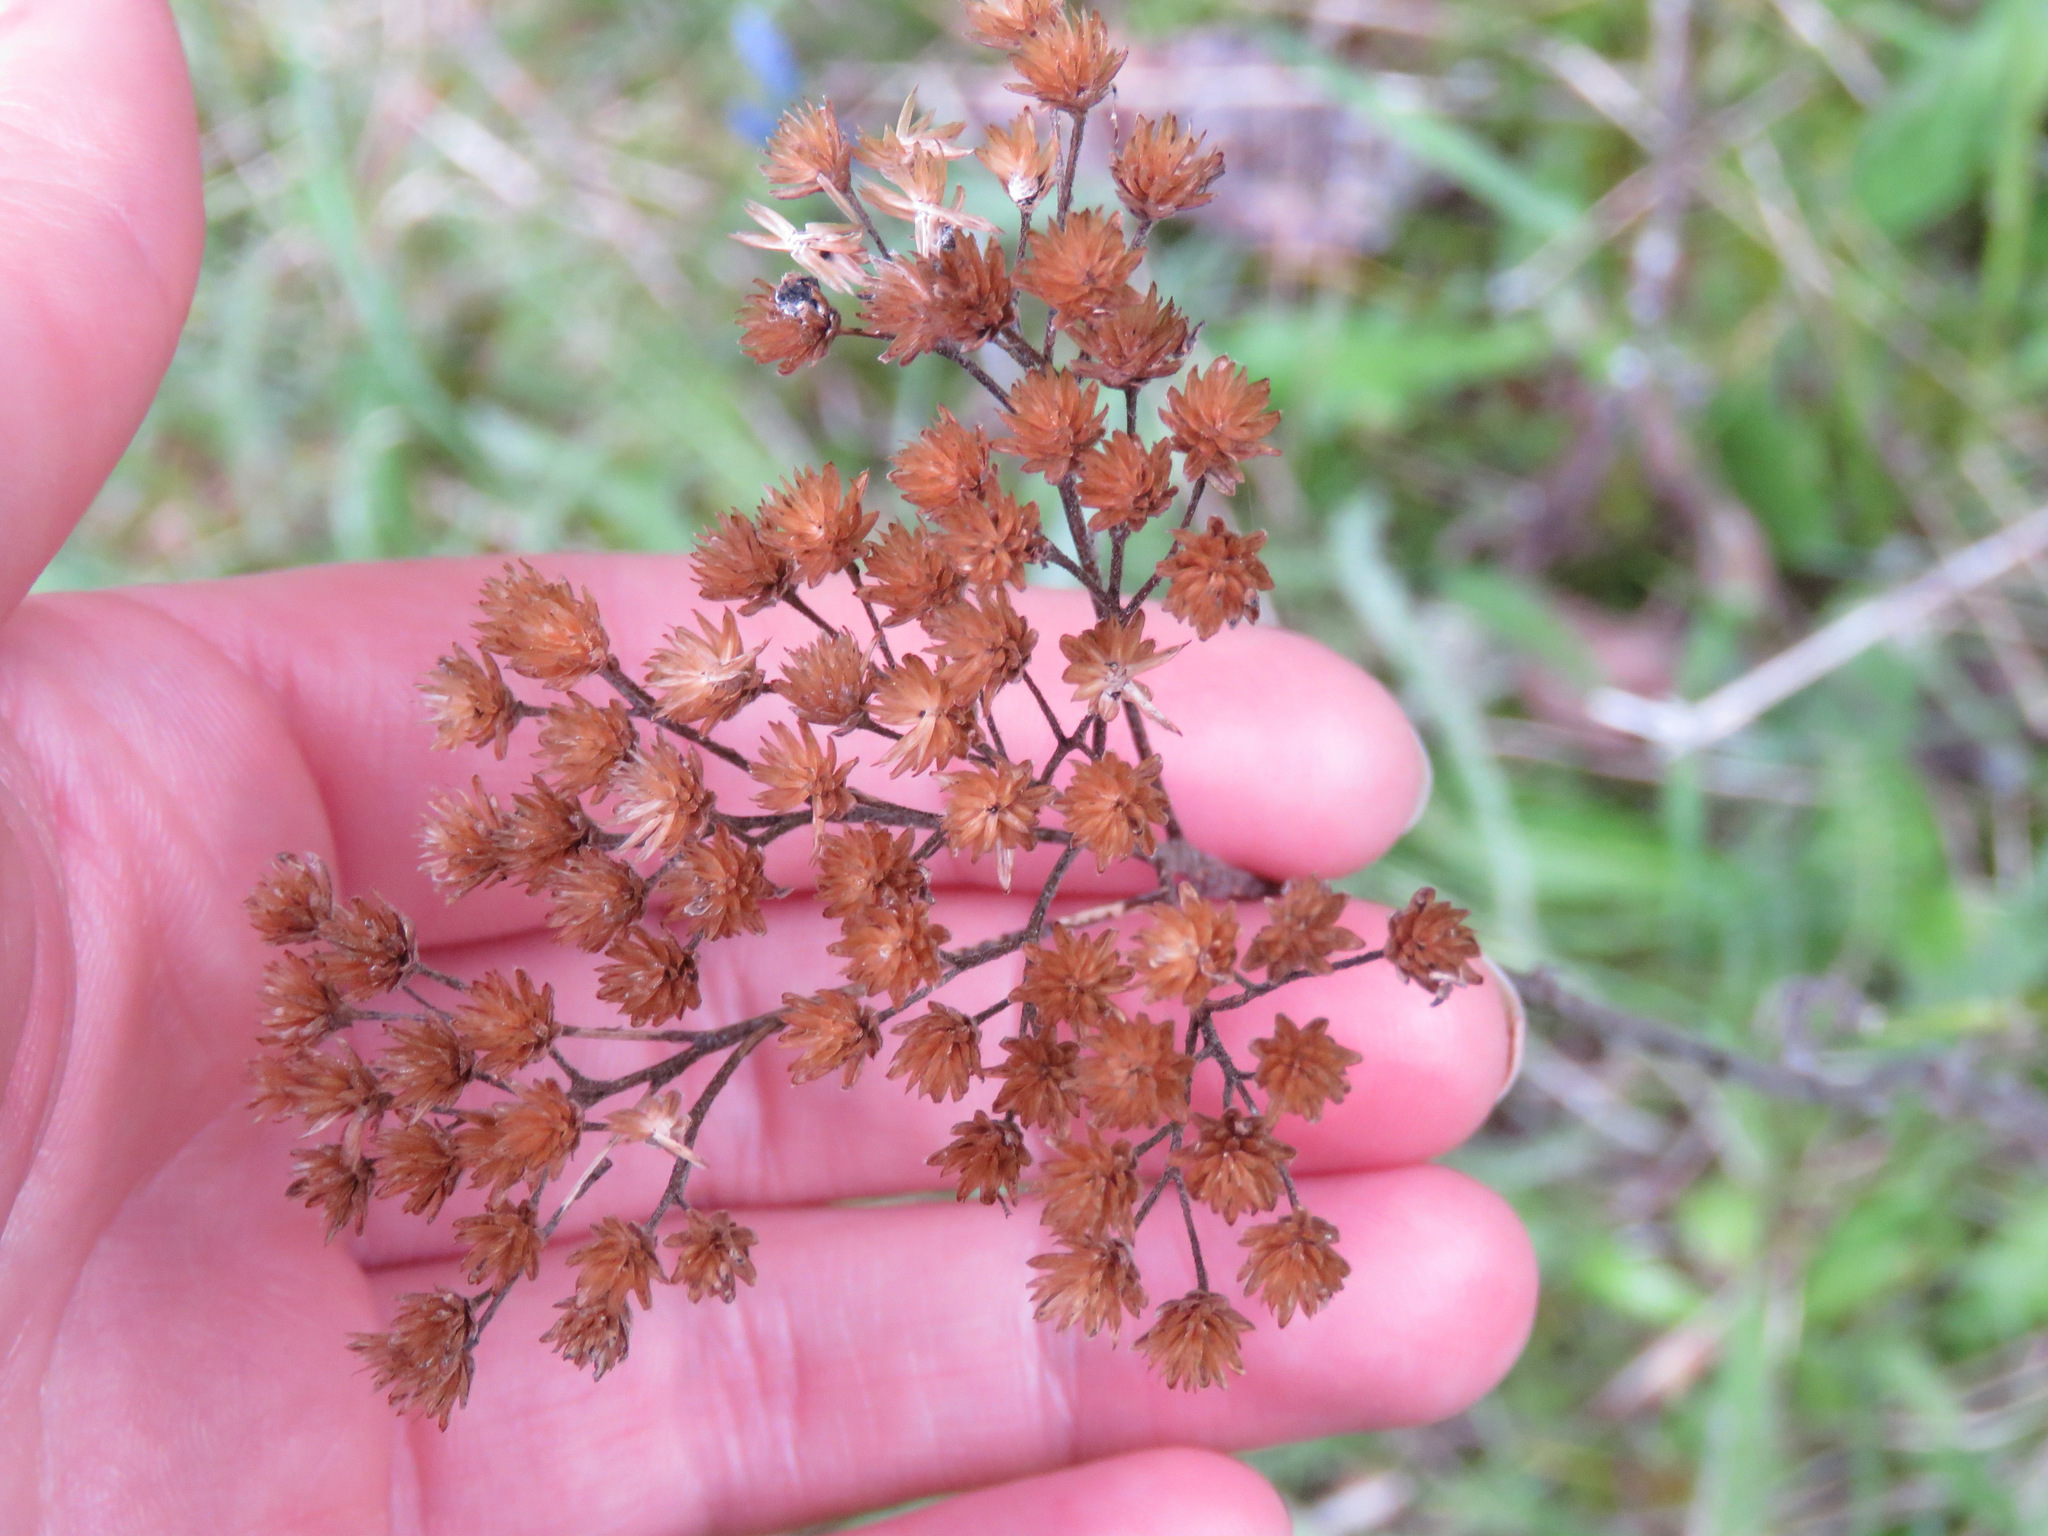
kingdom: Plantae
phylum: Tracheophyta
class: Magnoliopsida
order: Asterales
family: Asteraceae
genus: Achillea
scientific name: Achillea millefolium
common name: Yarrow
